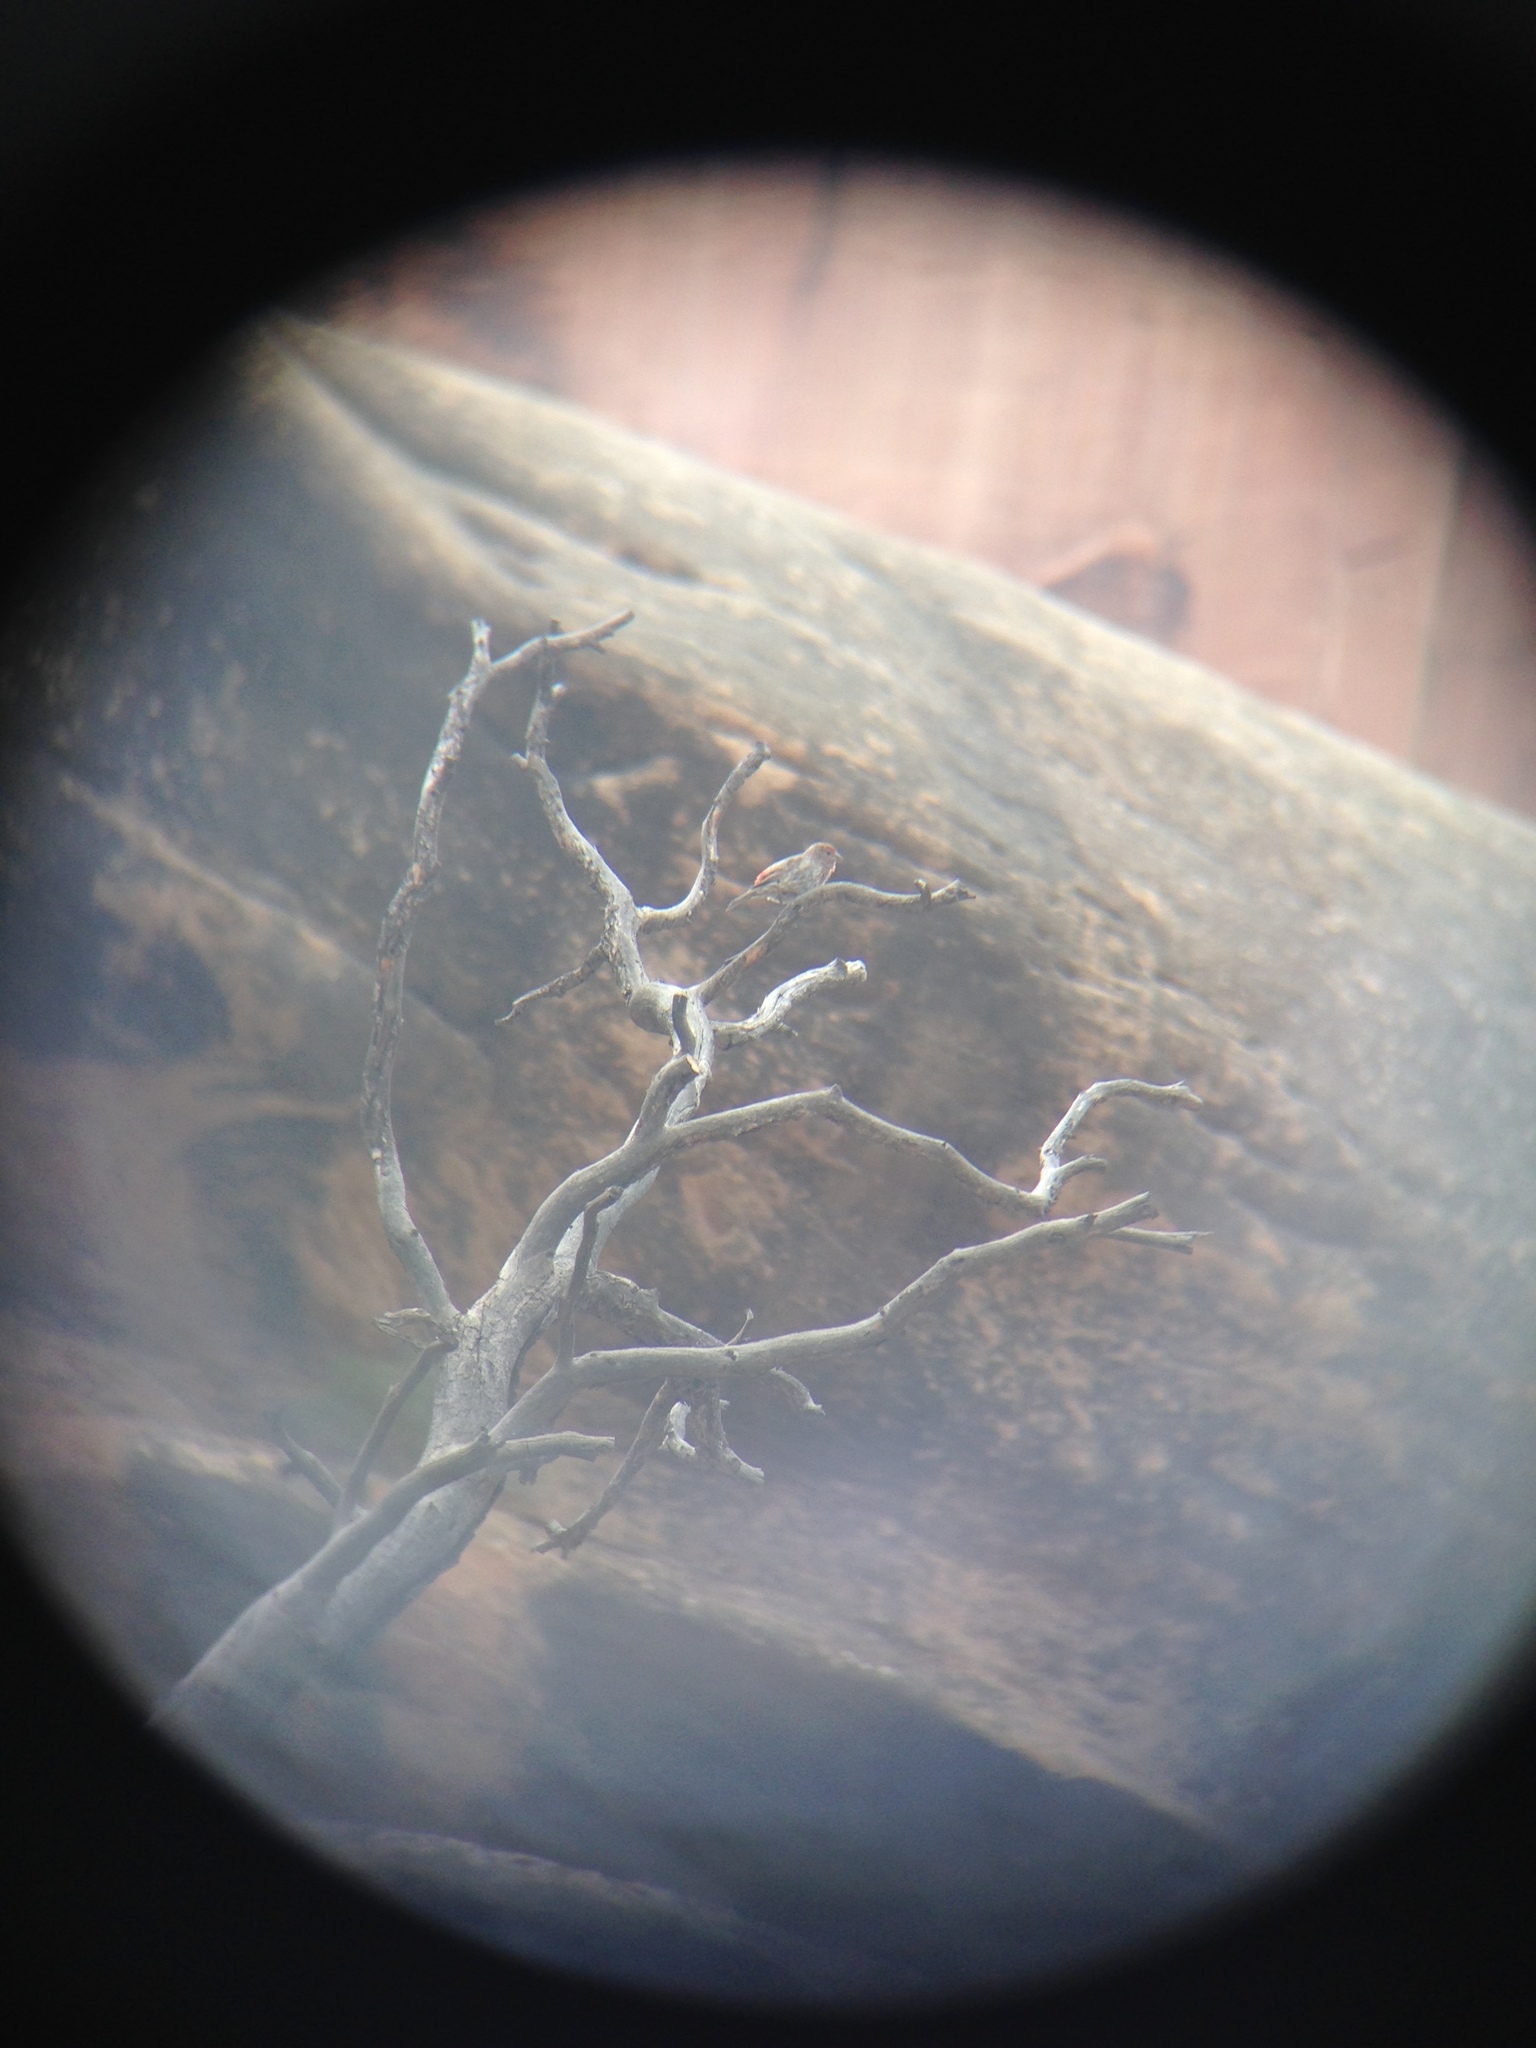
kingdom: Animalia
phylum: Chordata
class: Aves
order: Passeriformes
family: Fringillidae
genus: Haemorhous
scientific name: Haemorhous mexicanus
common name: House finch
